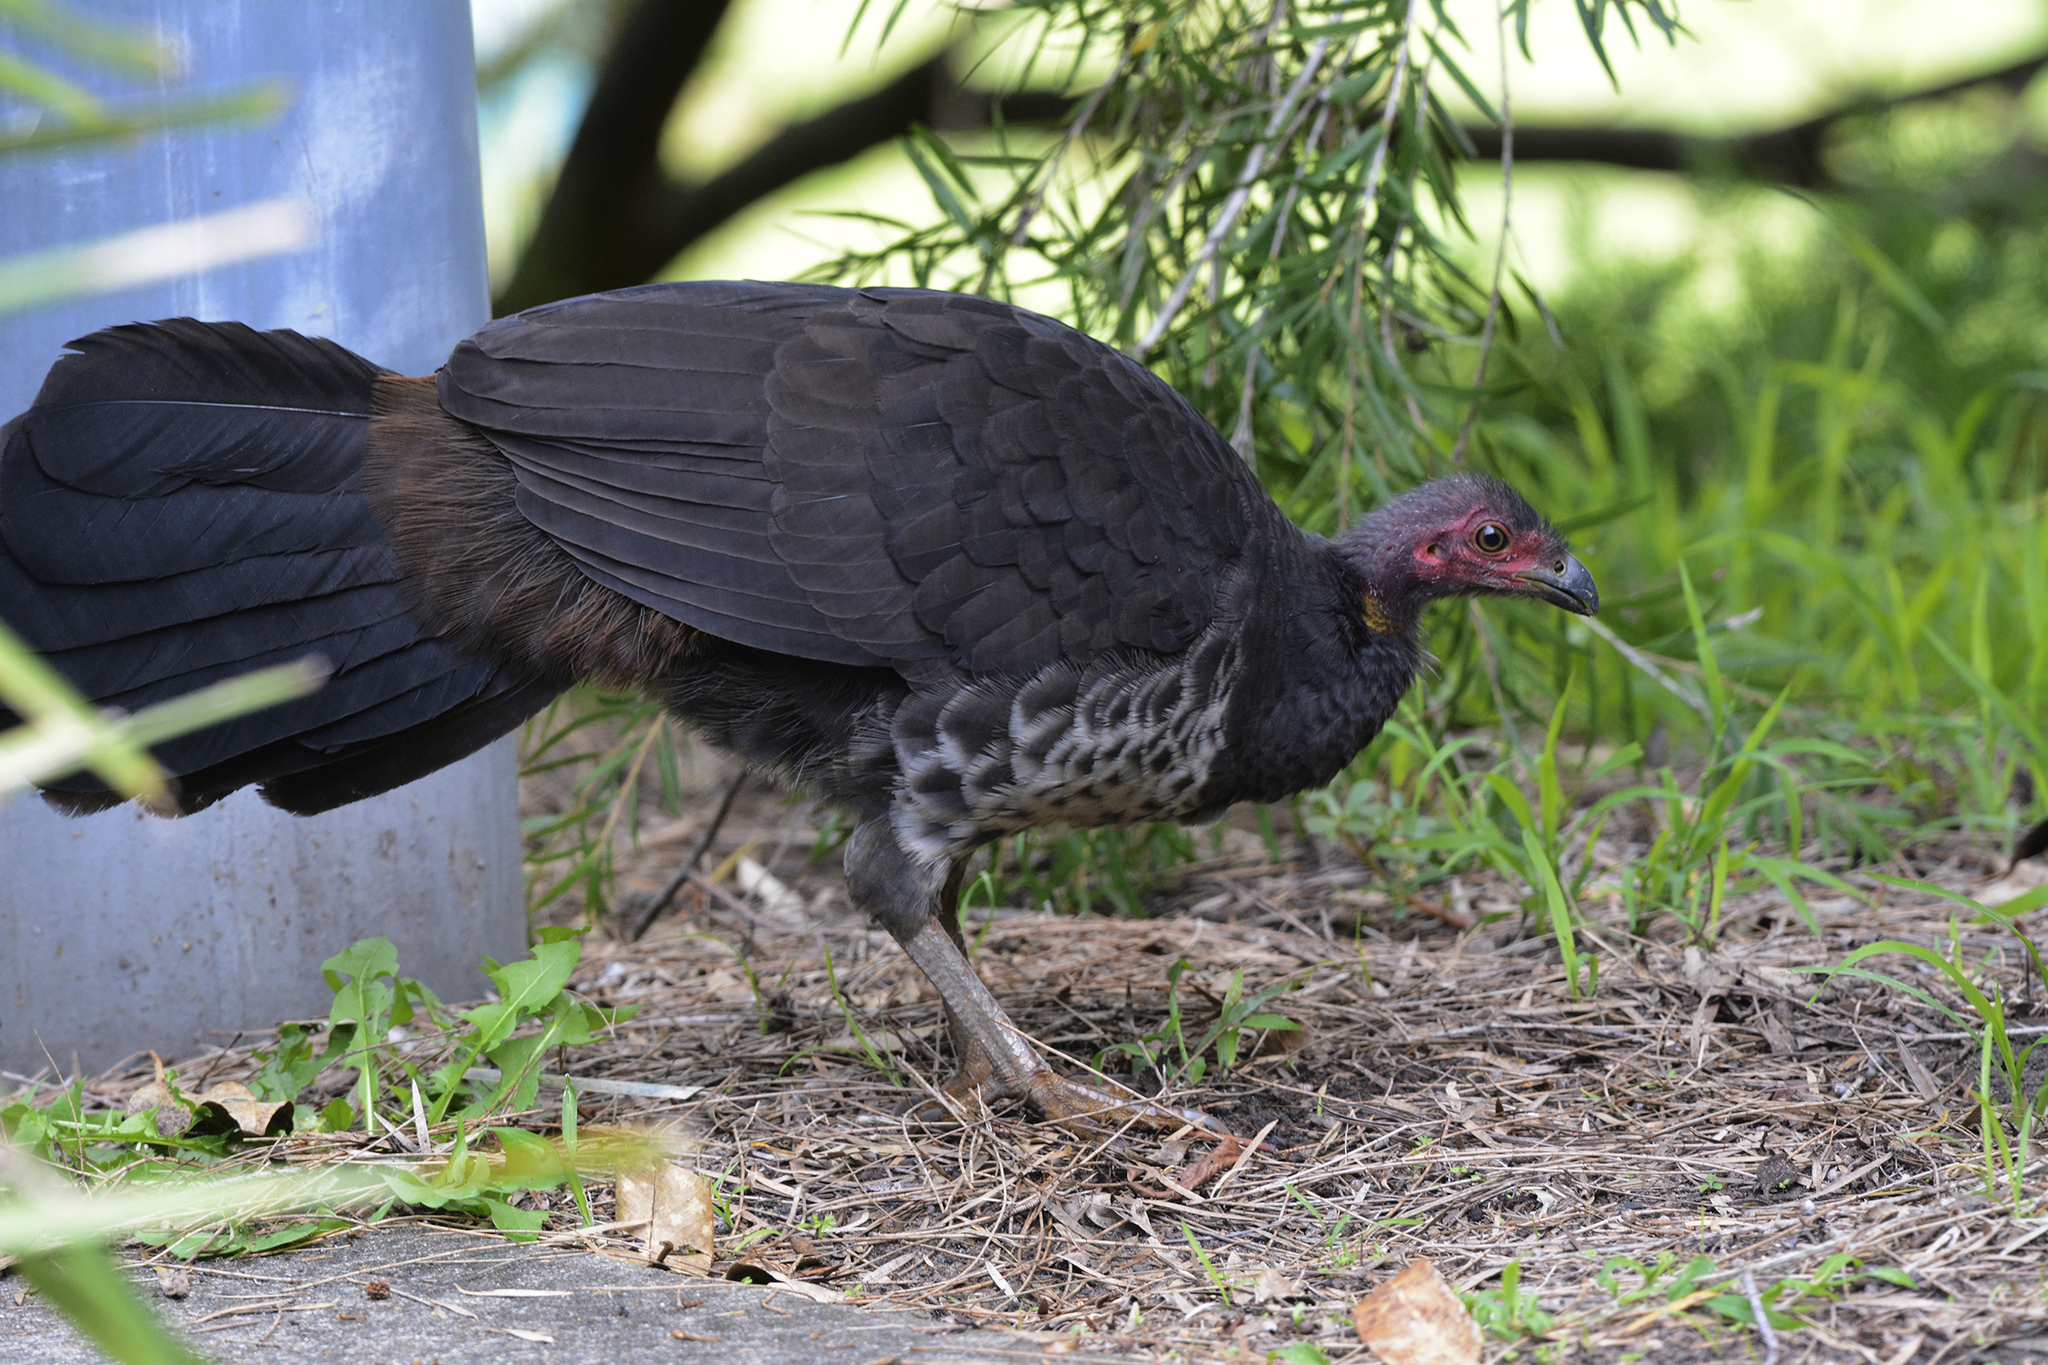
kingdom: Animalia
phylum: Chordata
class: Aves
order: Galliformes
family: Megapodiidae
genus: Alectura
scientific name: Alectura lathami
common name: Australian brushturkey
